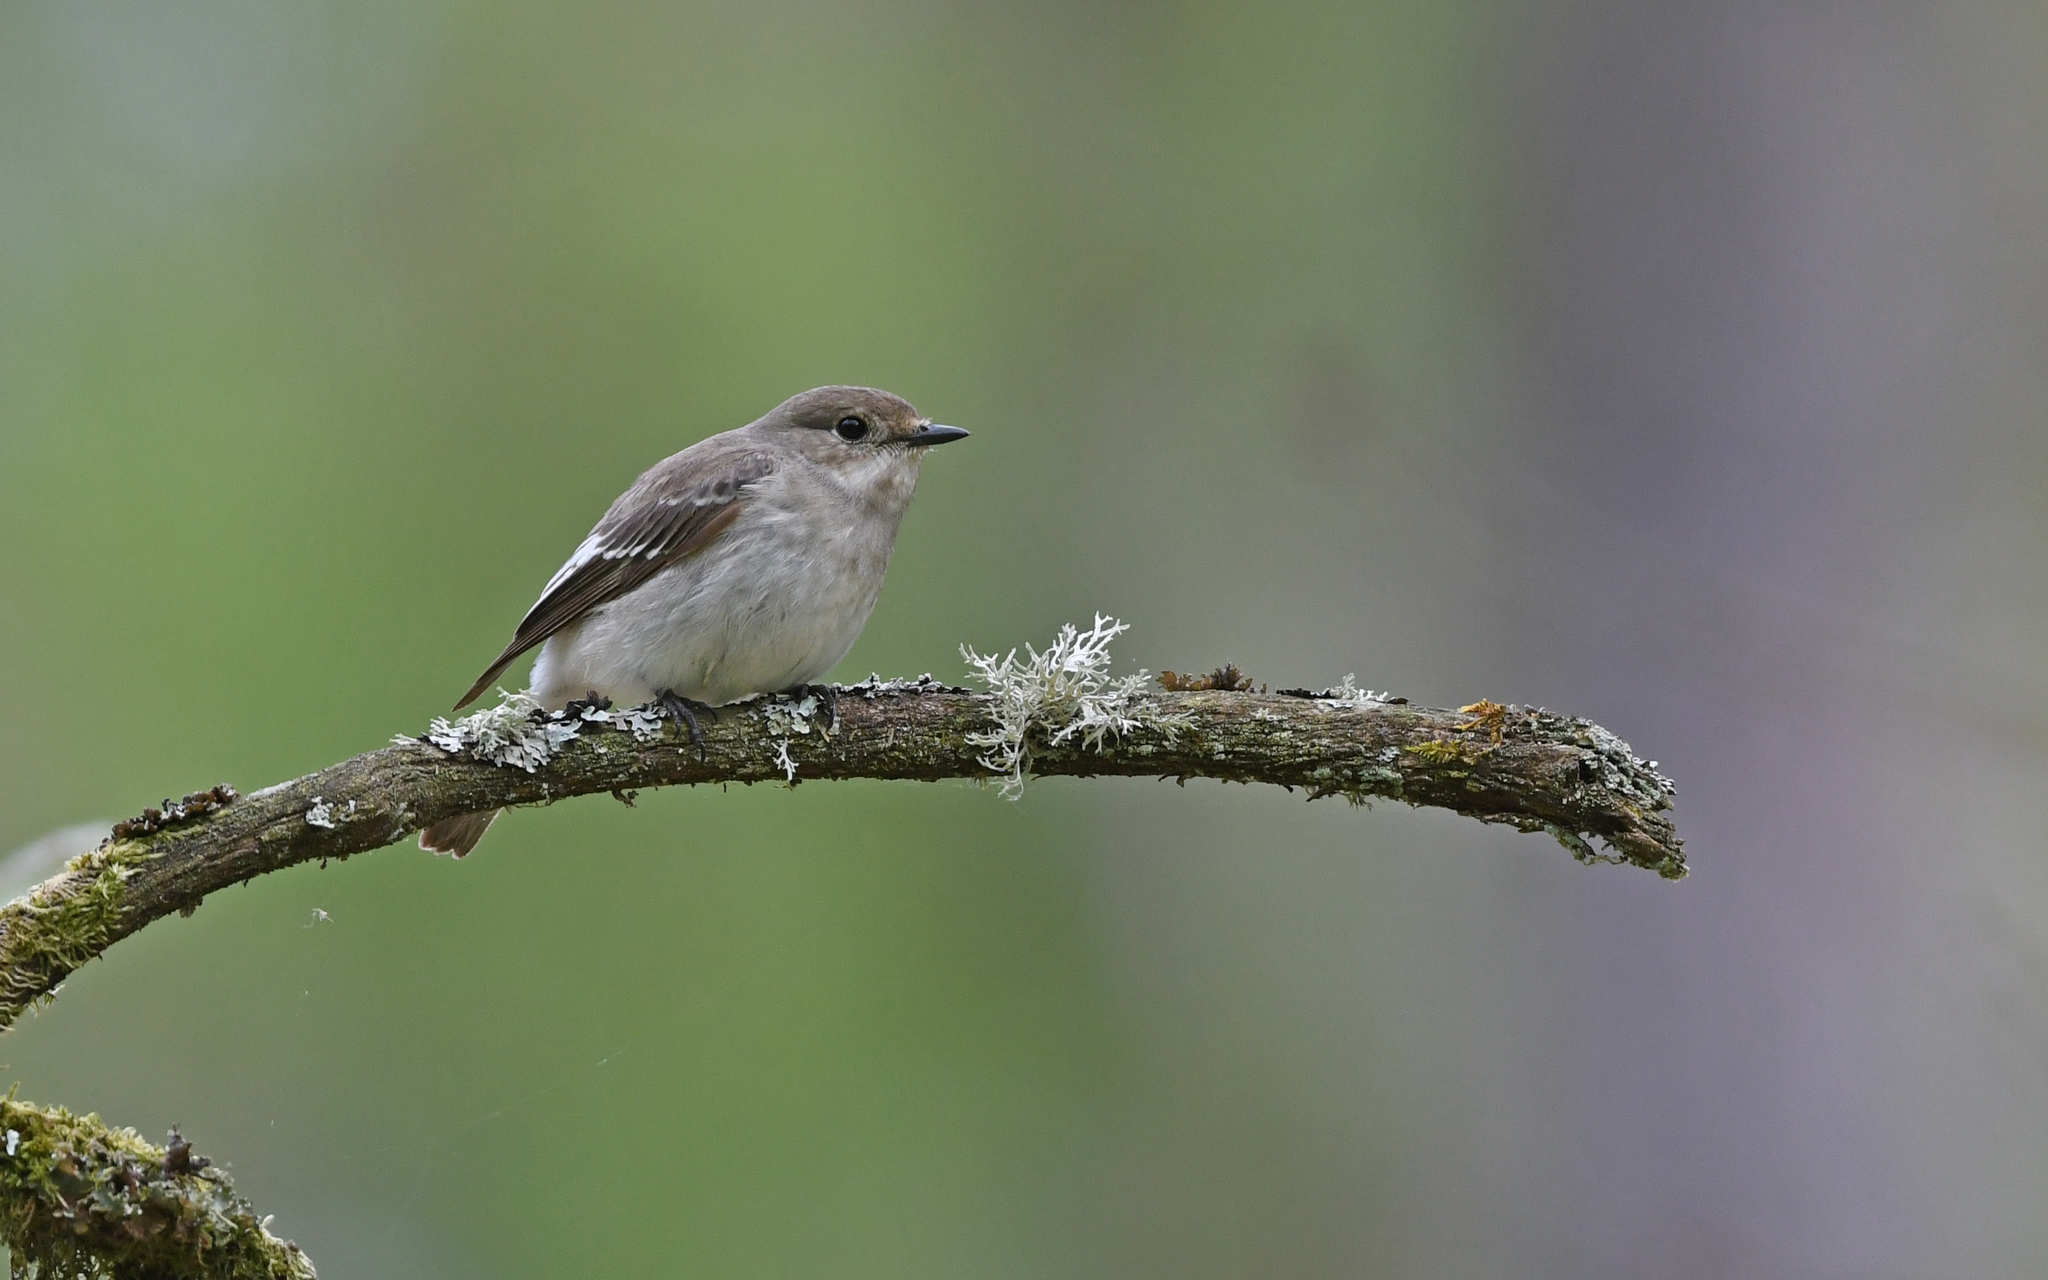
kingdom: Animalia
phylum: Chordata
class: Aves
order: Passeriformes
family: Muscicapidae
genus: Ficedula
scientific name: Ficedula hypoleuca
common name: European pied flycatcher
